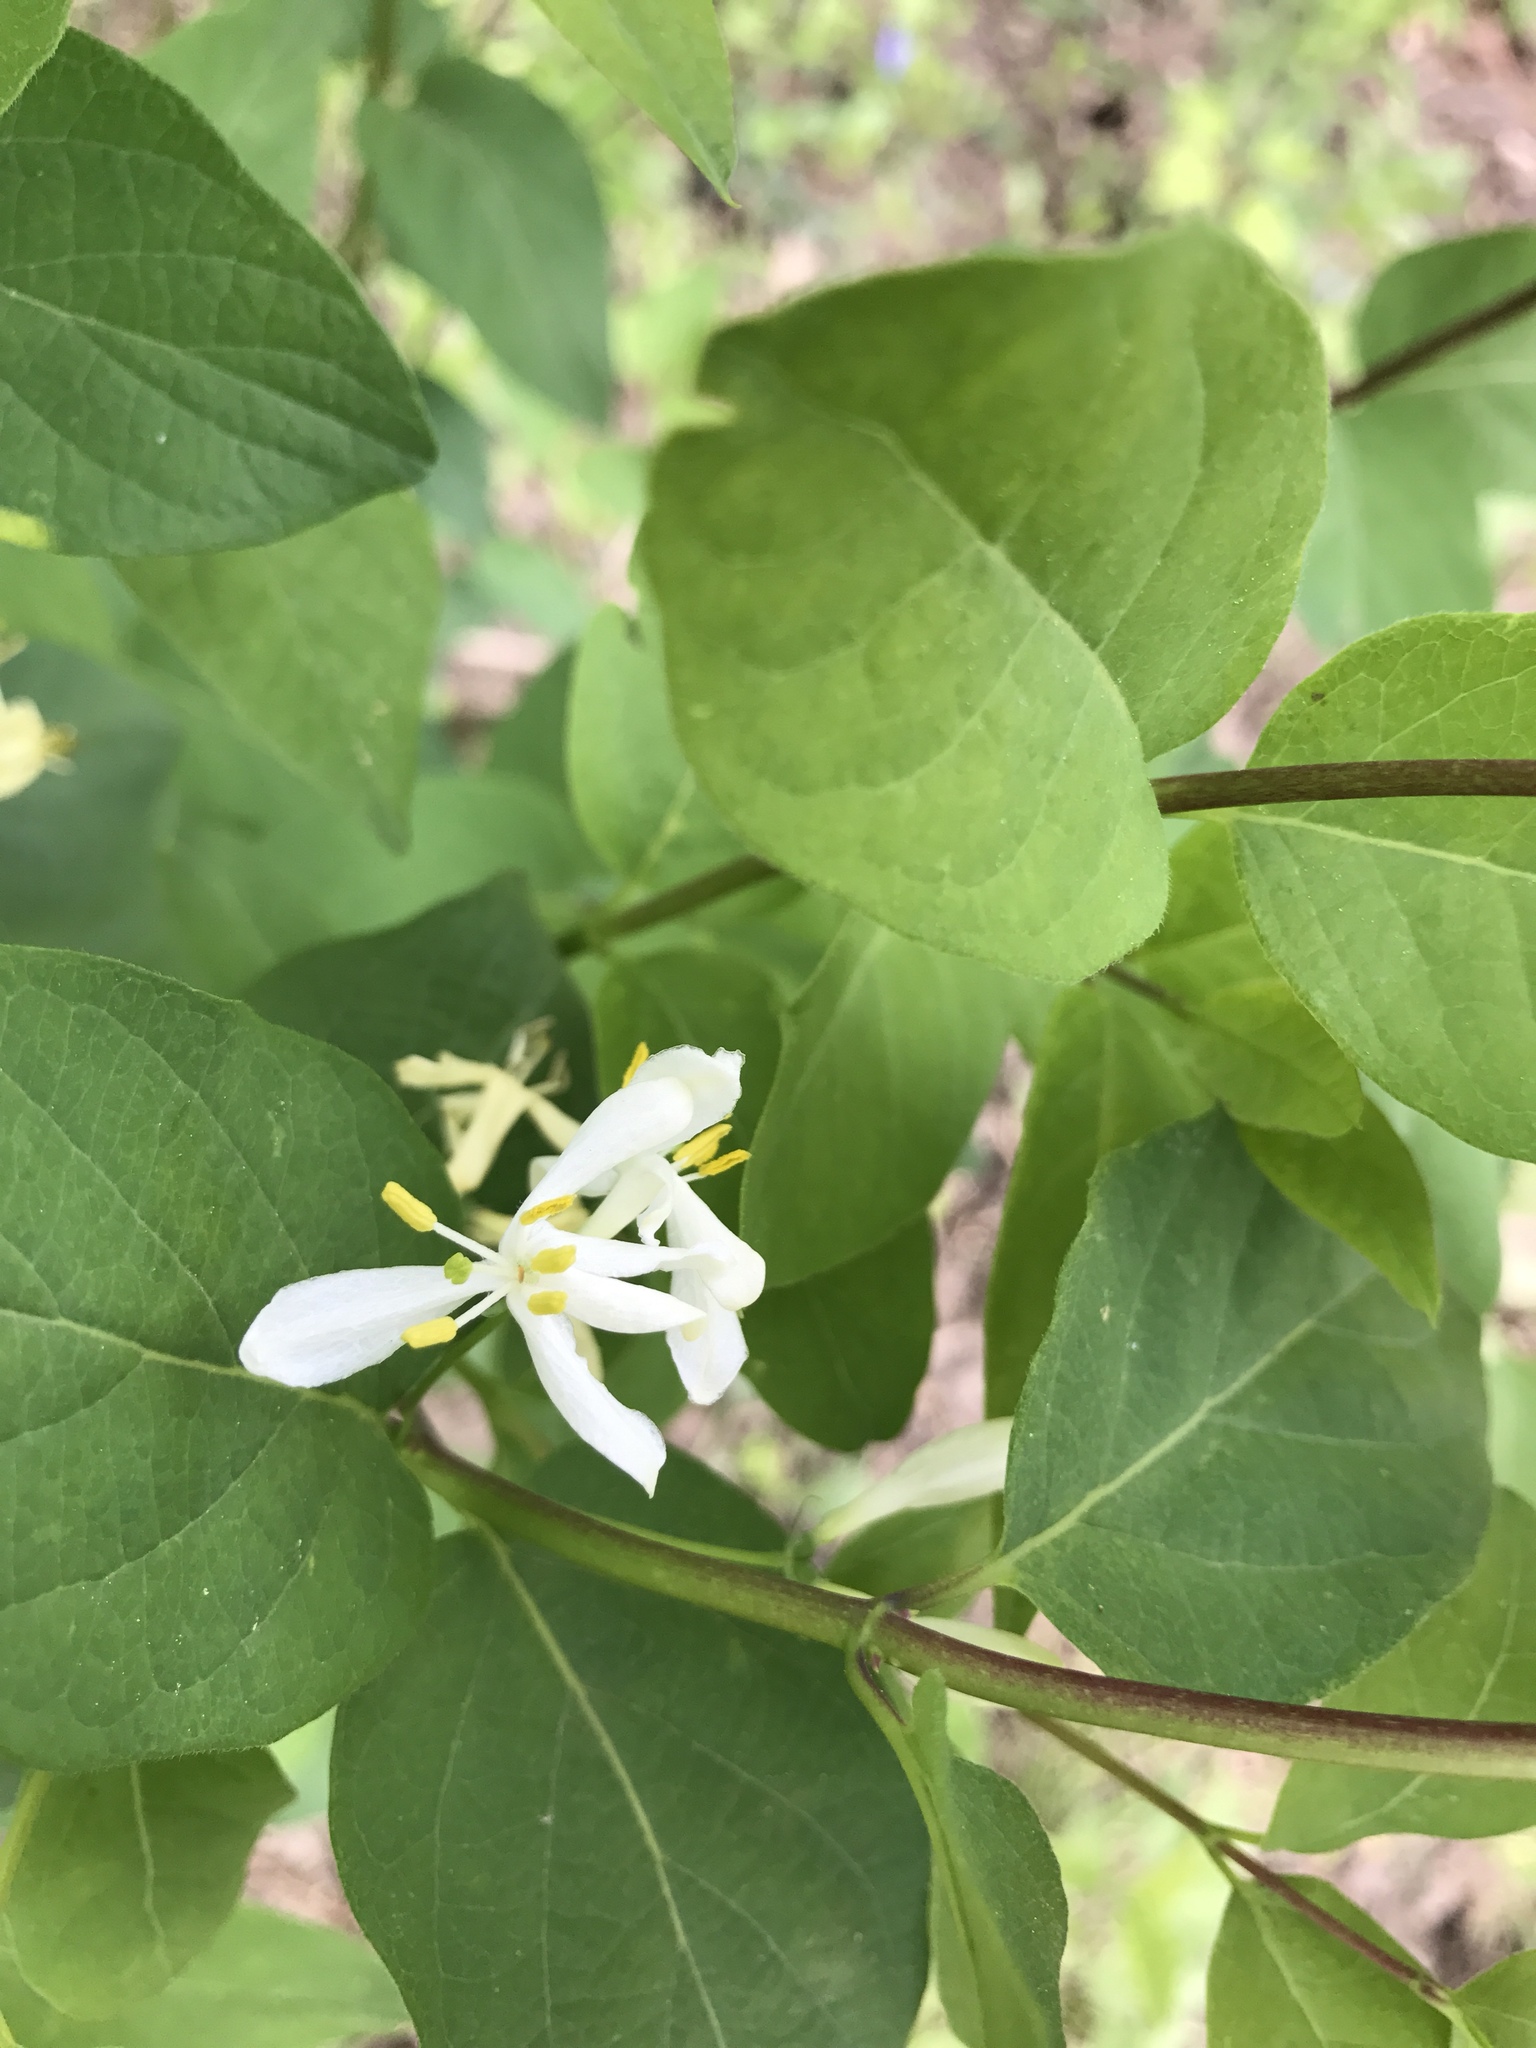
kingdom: Plantae
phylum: Tracheophyta
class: Magnoliopsida
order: Dipsacales
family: Caprifoliaceae
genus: Lonicera
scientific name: Lonicera morrowii
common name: Morrow's honeysuckle
